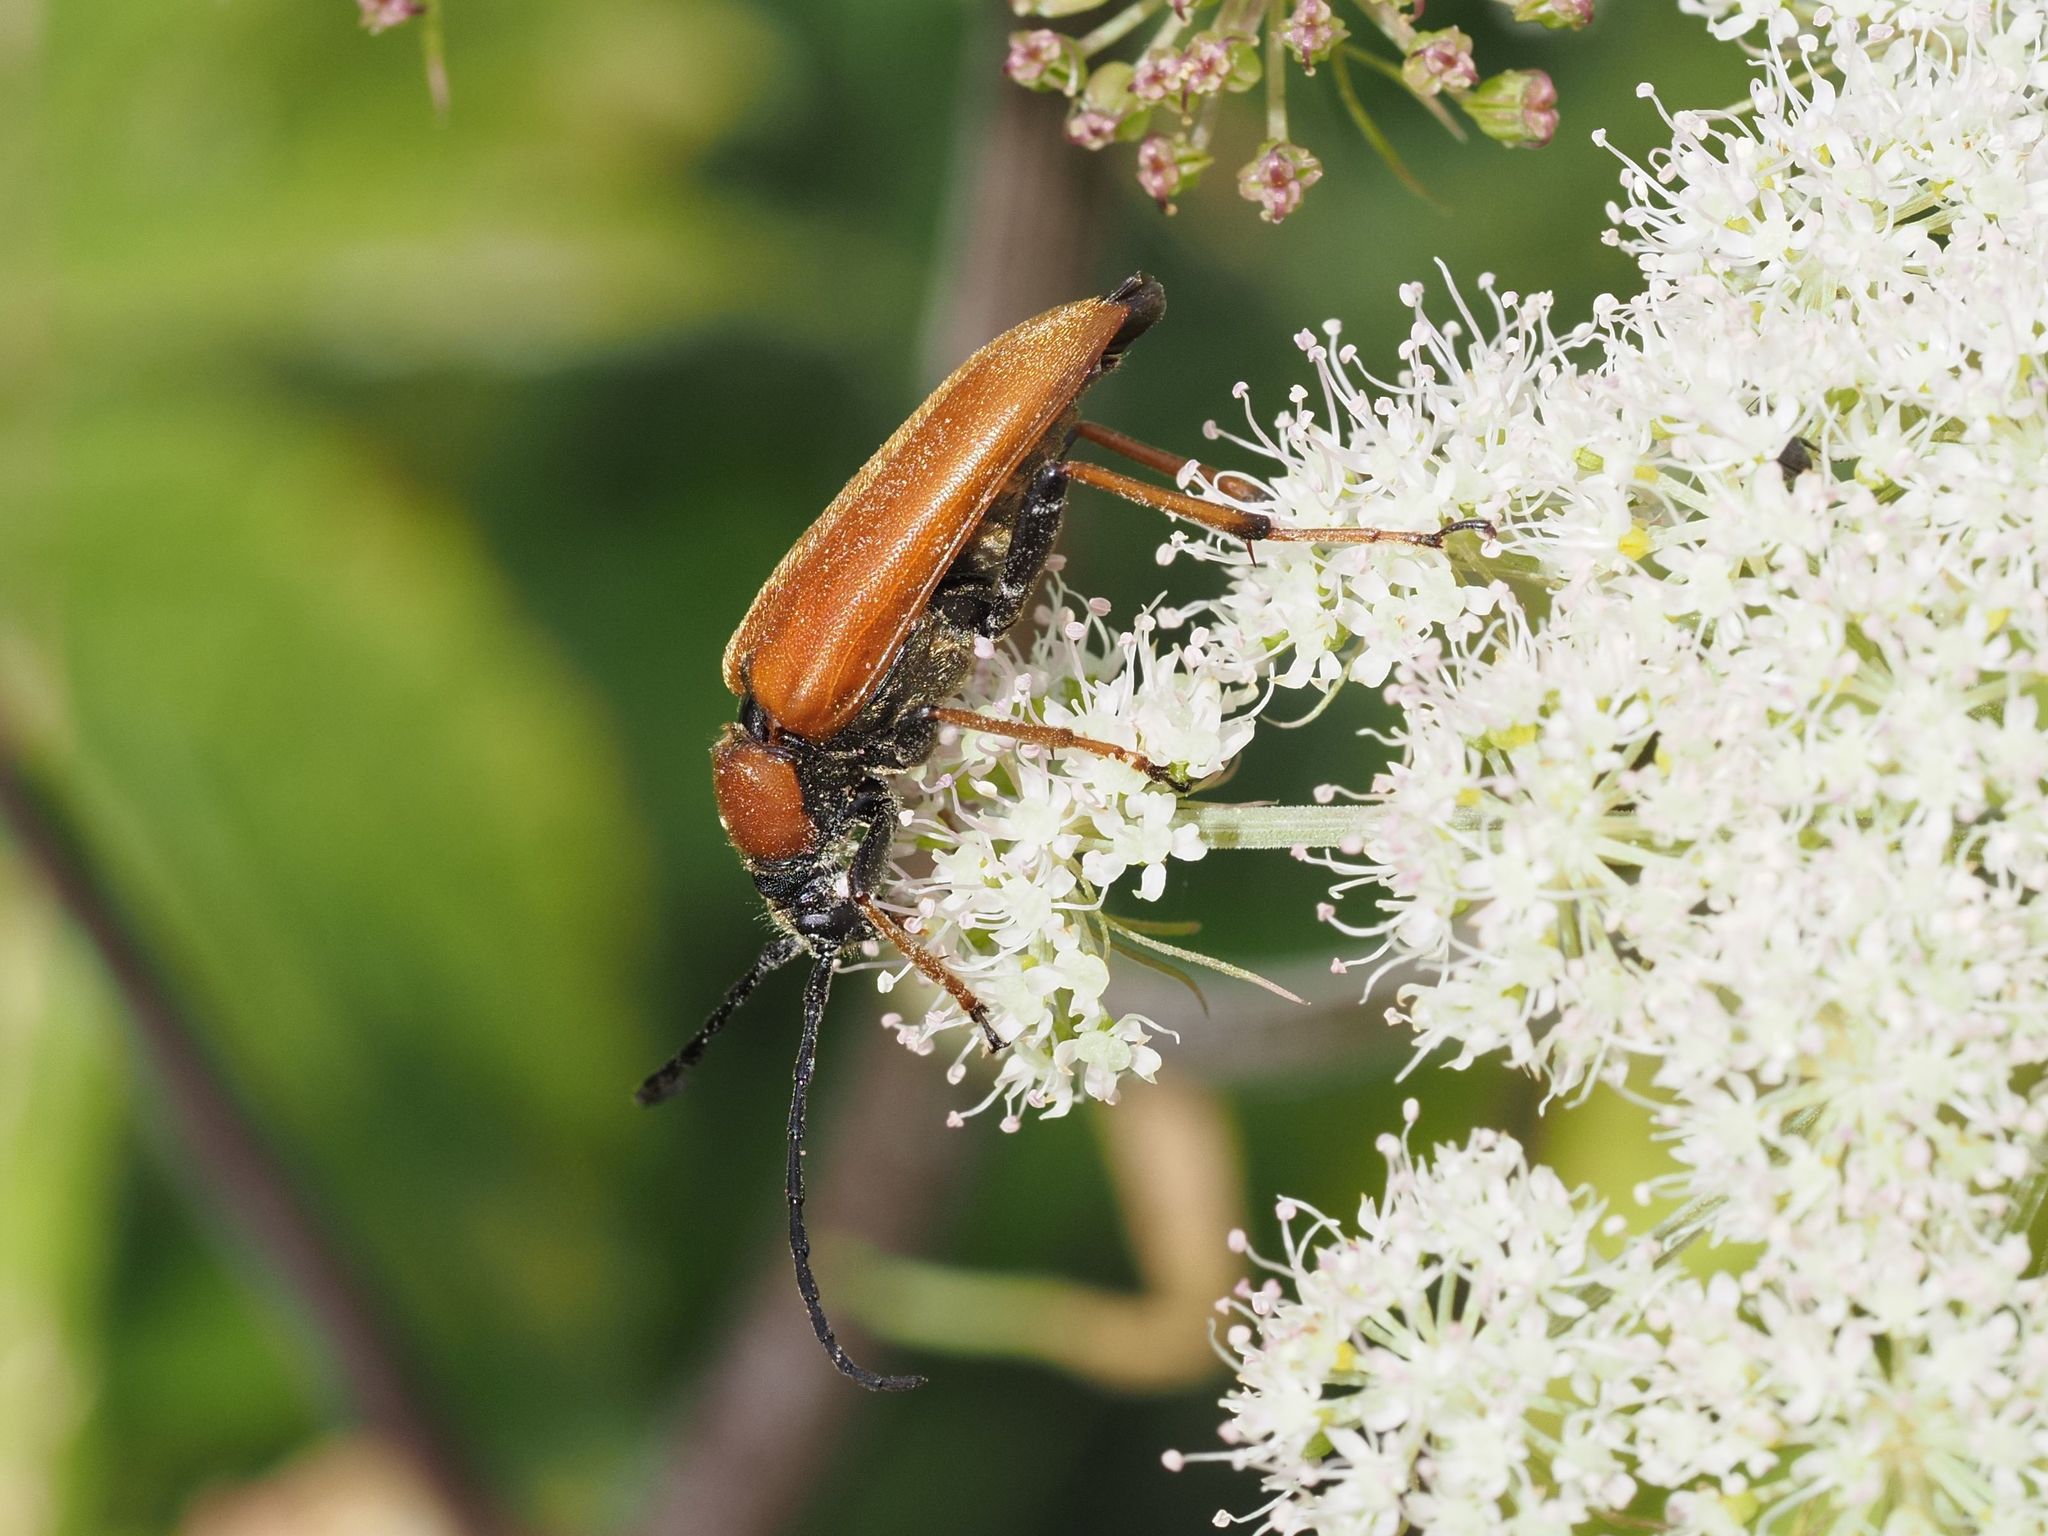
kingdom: Animalia
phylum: Arthropoda
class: Insecta
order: Coleoptera
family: Cerambycidae
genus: Stictoleptura
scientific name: Stictoleptura rubra
